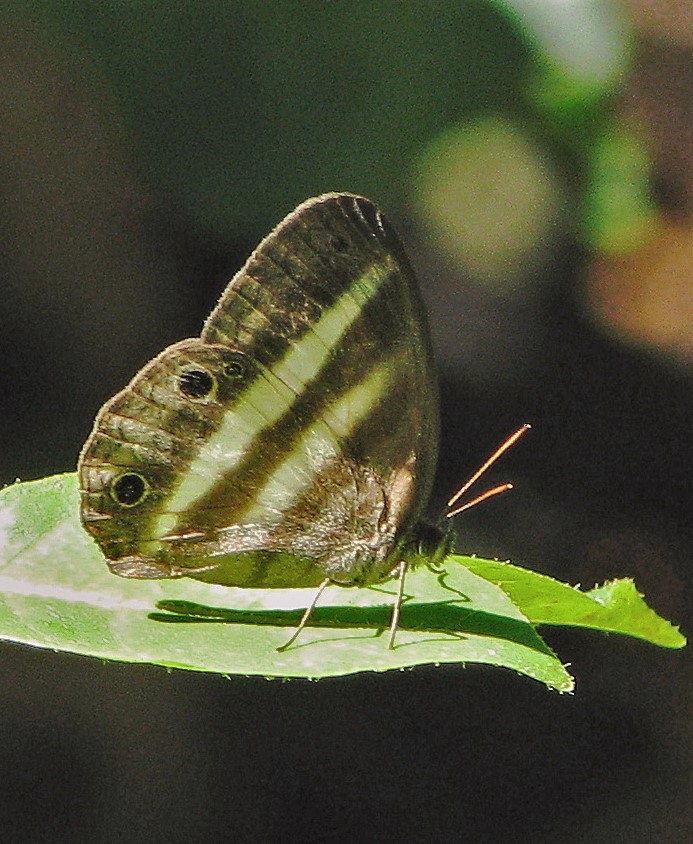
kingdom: Animalia
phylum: Arthropoda
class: Insecta
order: Lepidoptera
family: Nymphalidae
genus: Pareuptychia
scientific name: Pareuptychia summandosa
